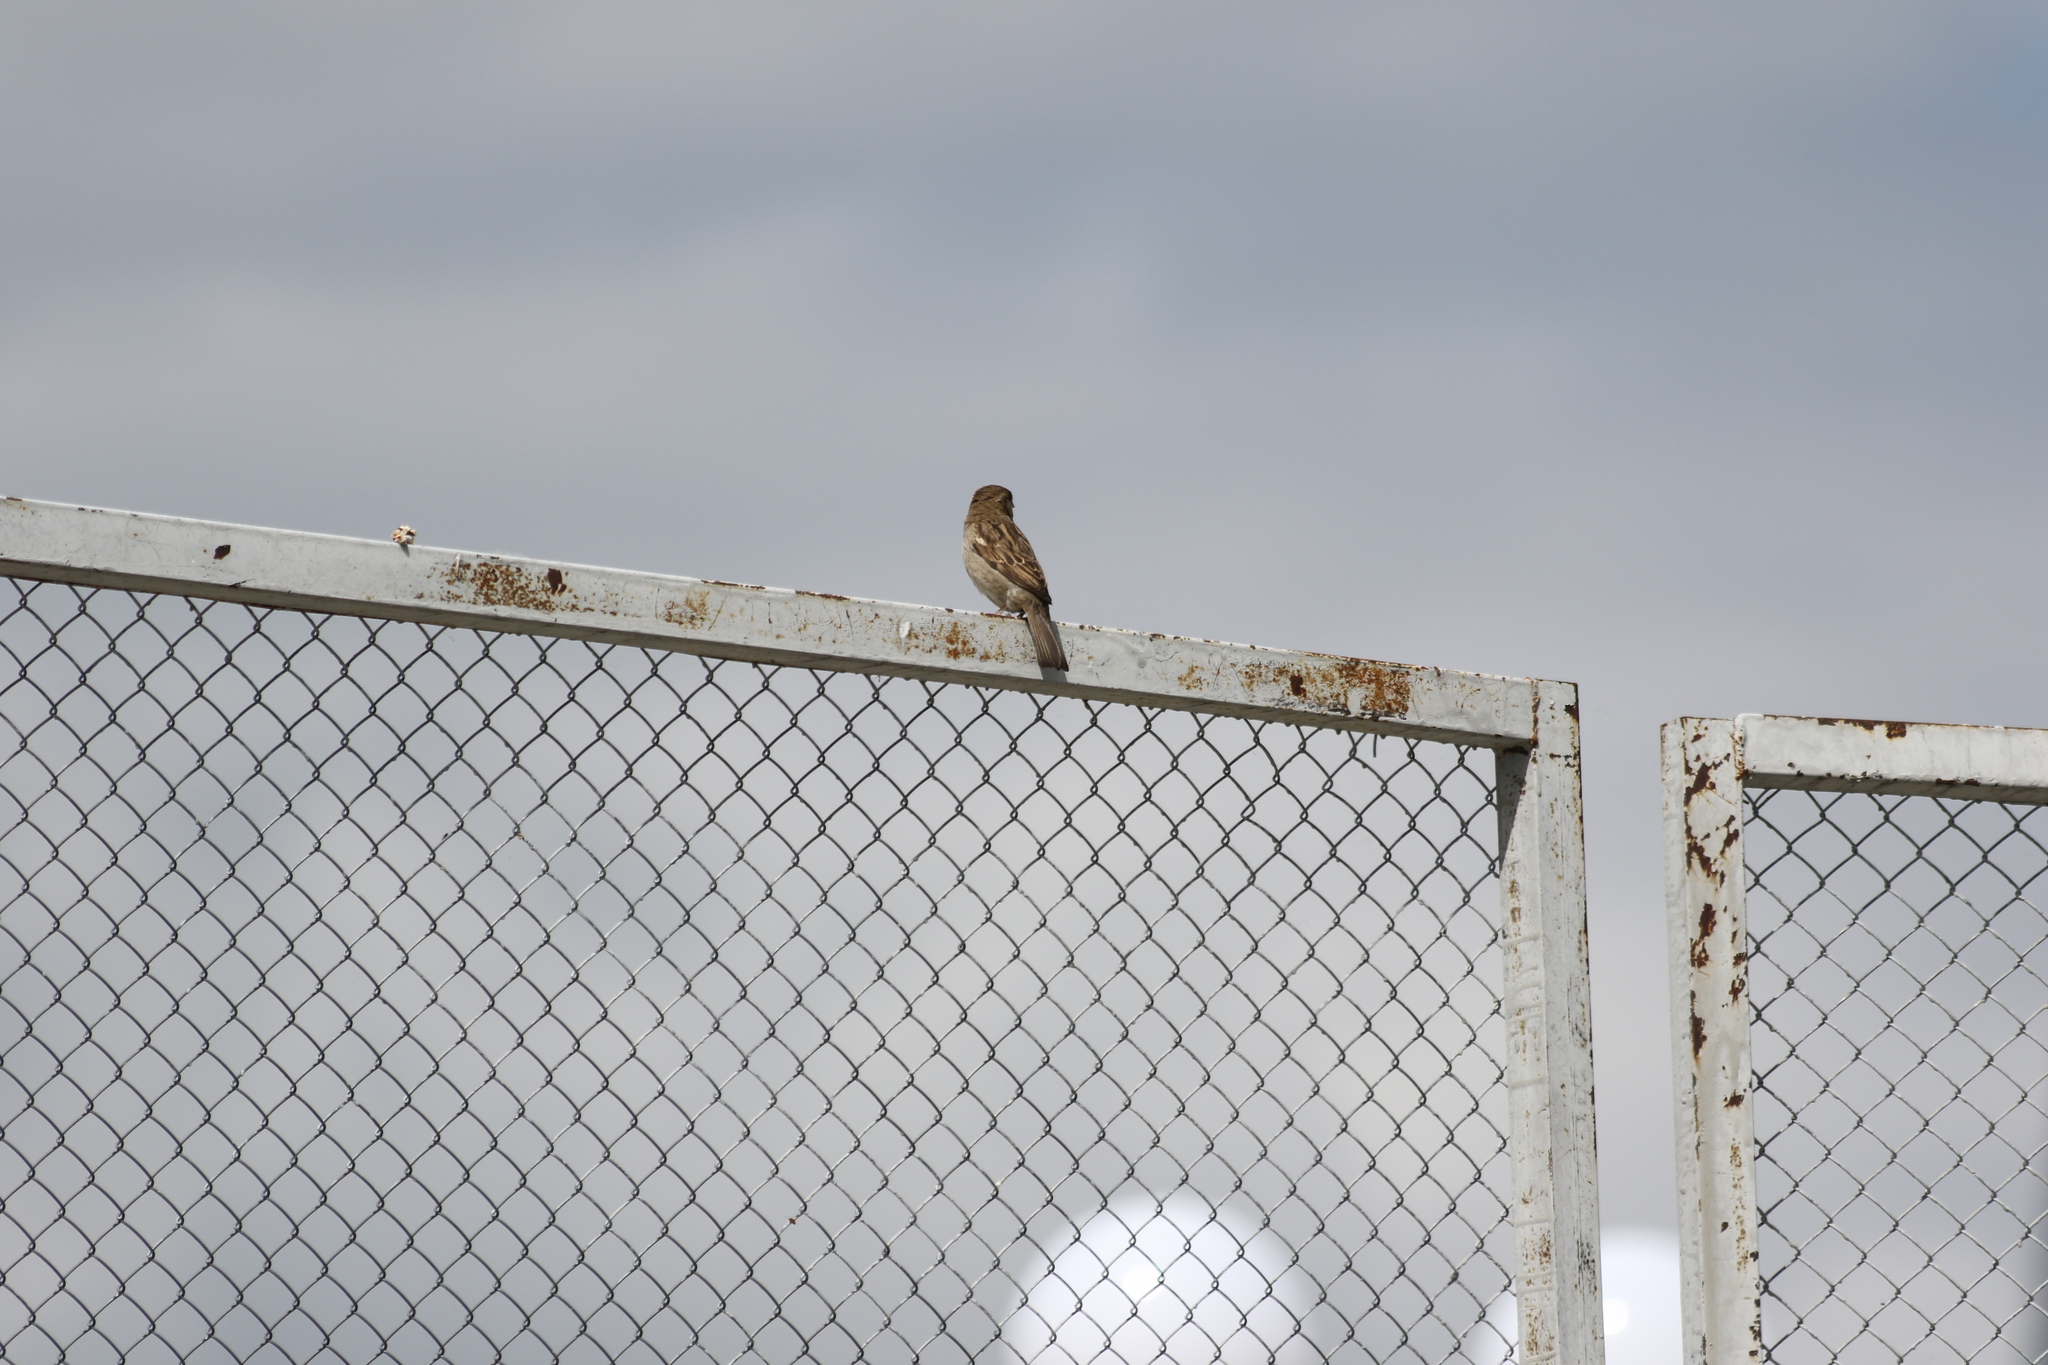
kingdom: Animalia
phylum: Chordata
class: Aves
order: Passeriformes
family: Passeridae
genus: Passer
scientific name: Passer domesticus
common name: House sparrow
